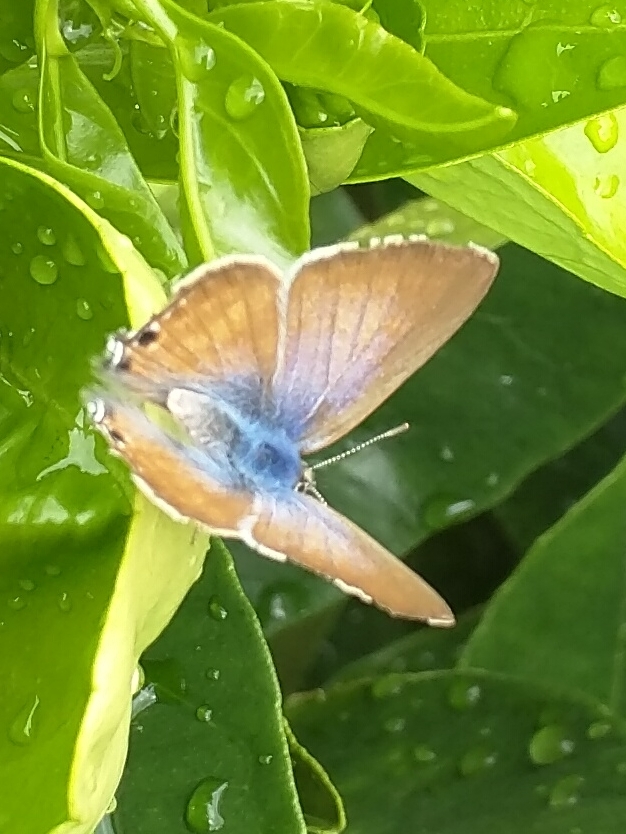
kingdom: Animalia
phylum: Arthropoda
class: Insecta
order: Lepidoptera
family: Lycaenidae
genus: Lampides
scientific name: Lampides boeticus
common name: Long-tailed blue
